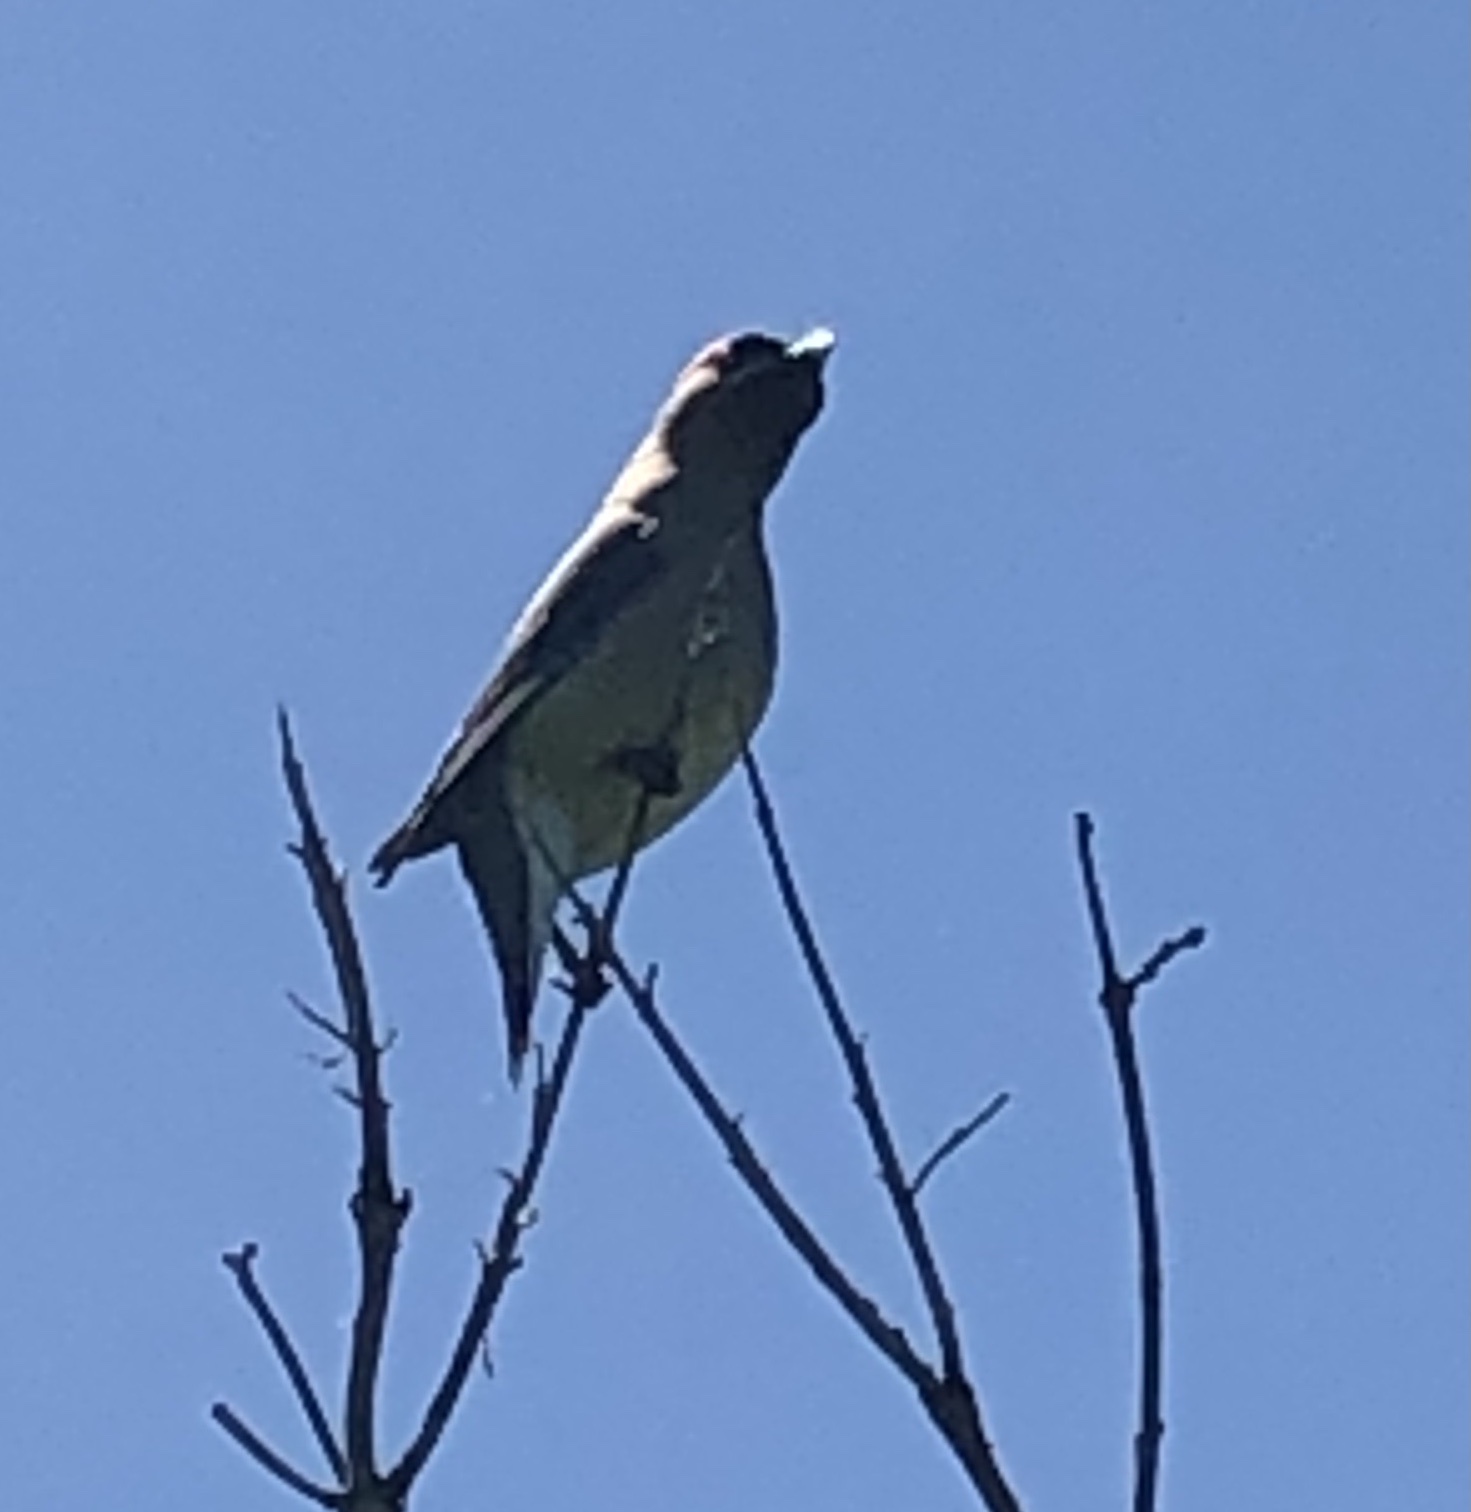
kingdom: Animalia
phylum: Chordata
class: Aves
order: Passeriformes
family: Bombycillidae
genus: Bombycilla
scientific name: Bombycilla cedrorum
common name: Cedar waxwing
